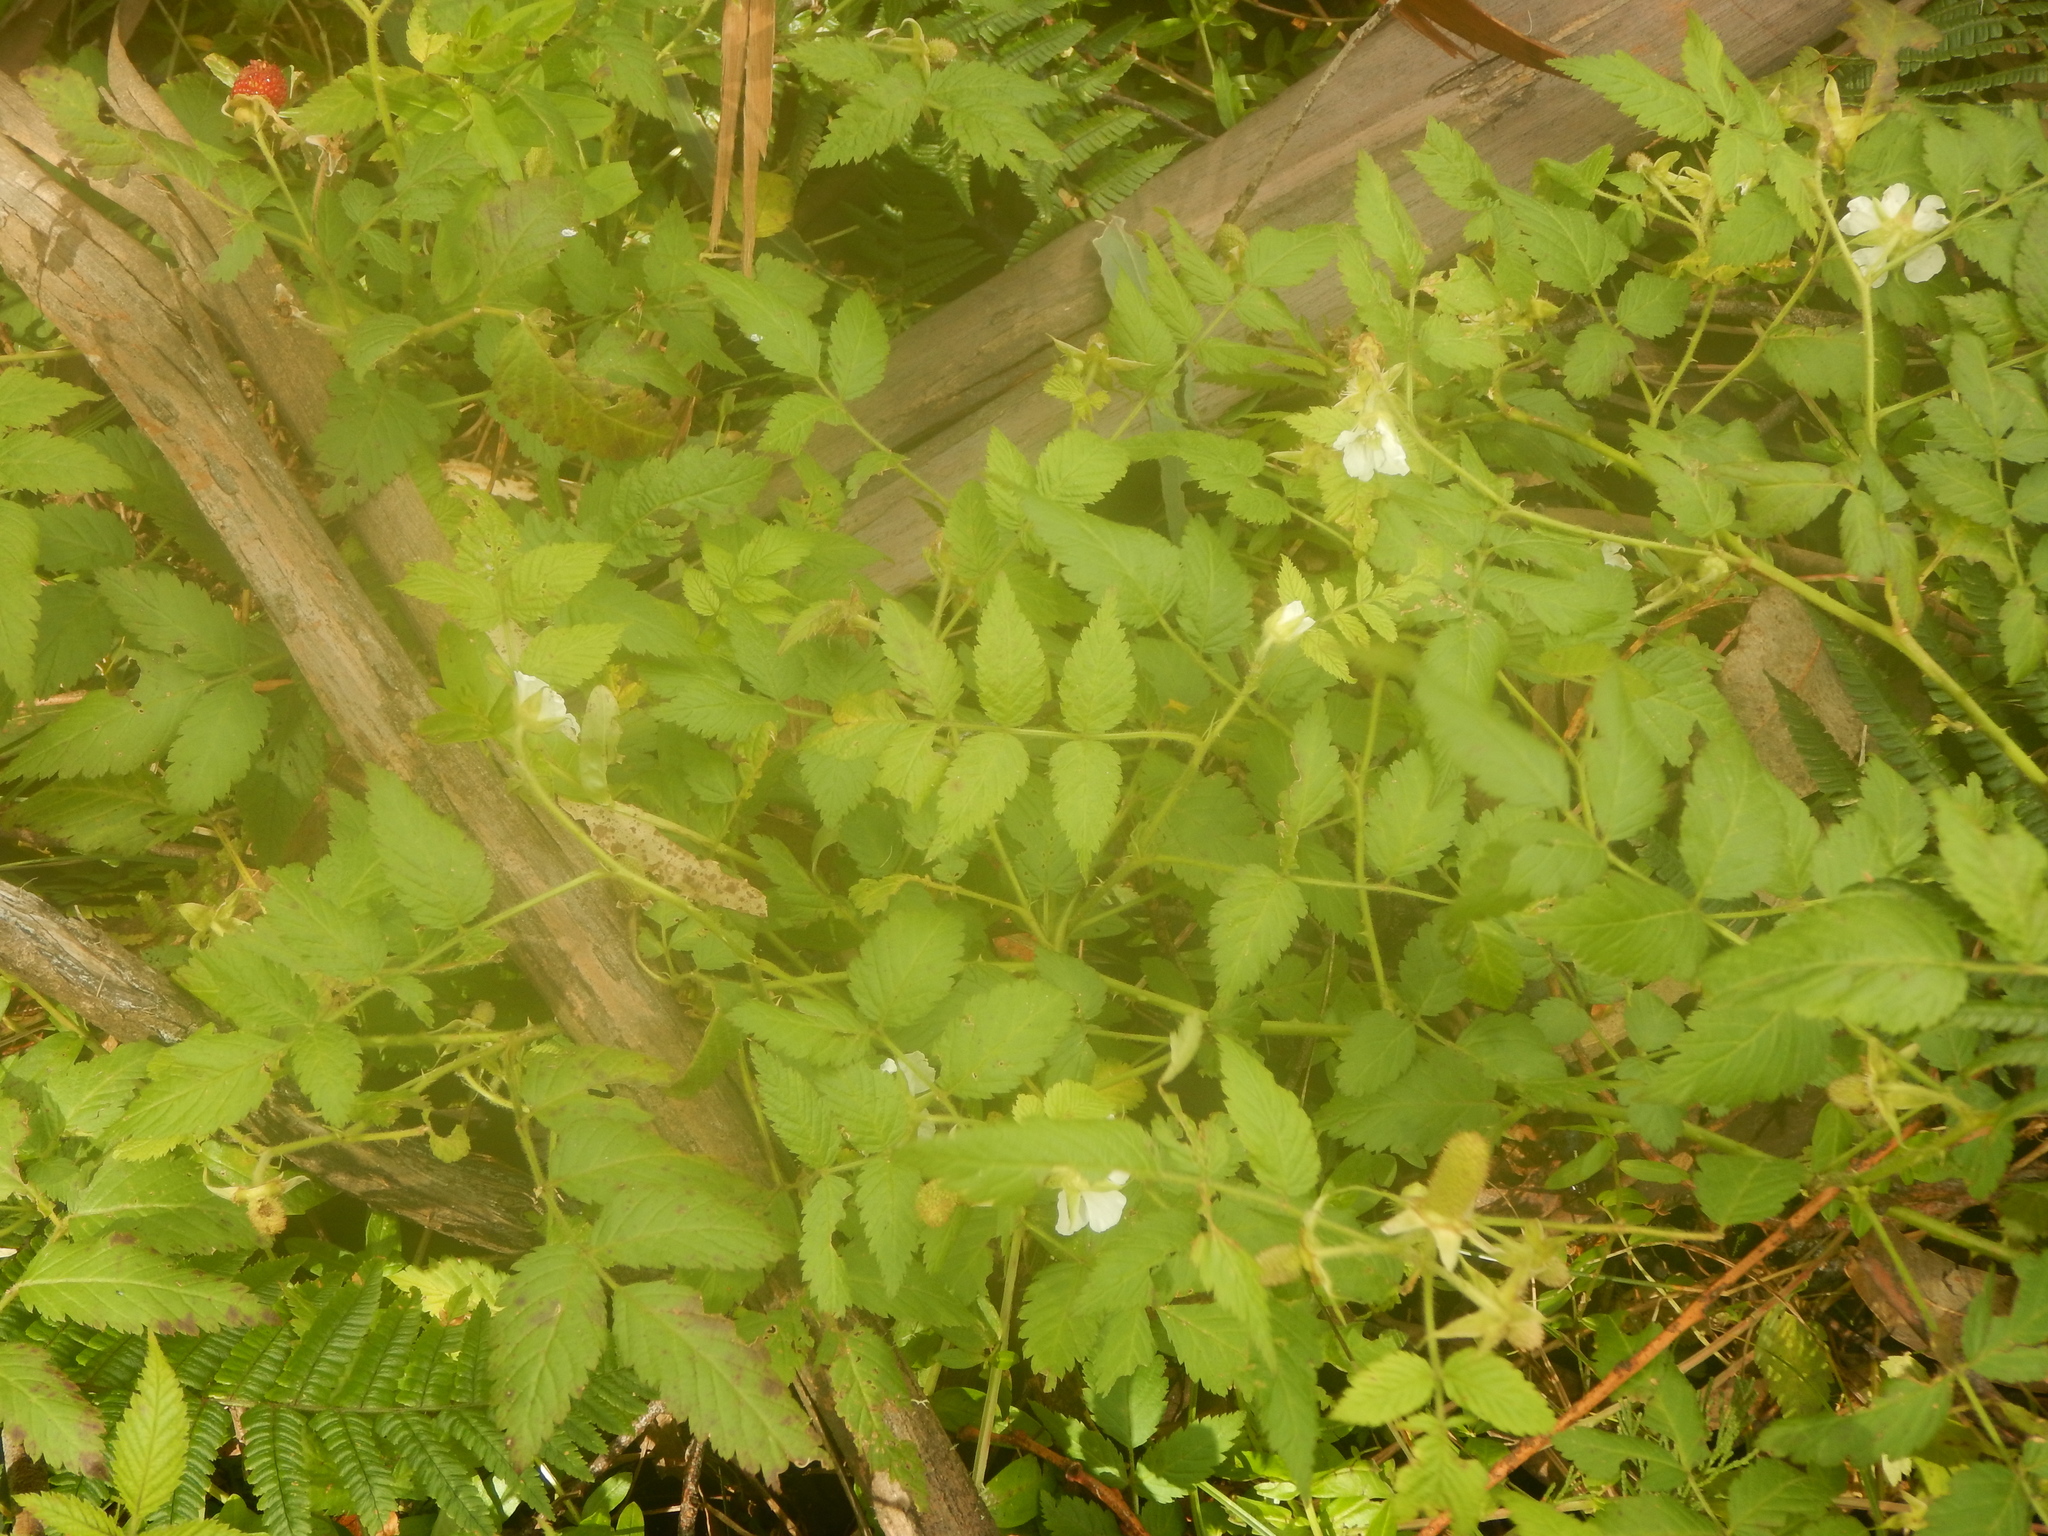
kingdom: Plantae
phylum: Tracheophyta
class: Magnoliopsida
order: Rosales
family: Rosaceae
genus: Rubus
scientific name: Rubus rosifolius
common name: Roseleaf raspberry
